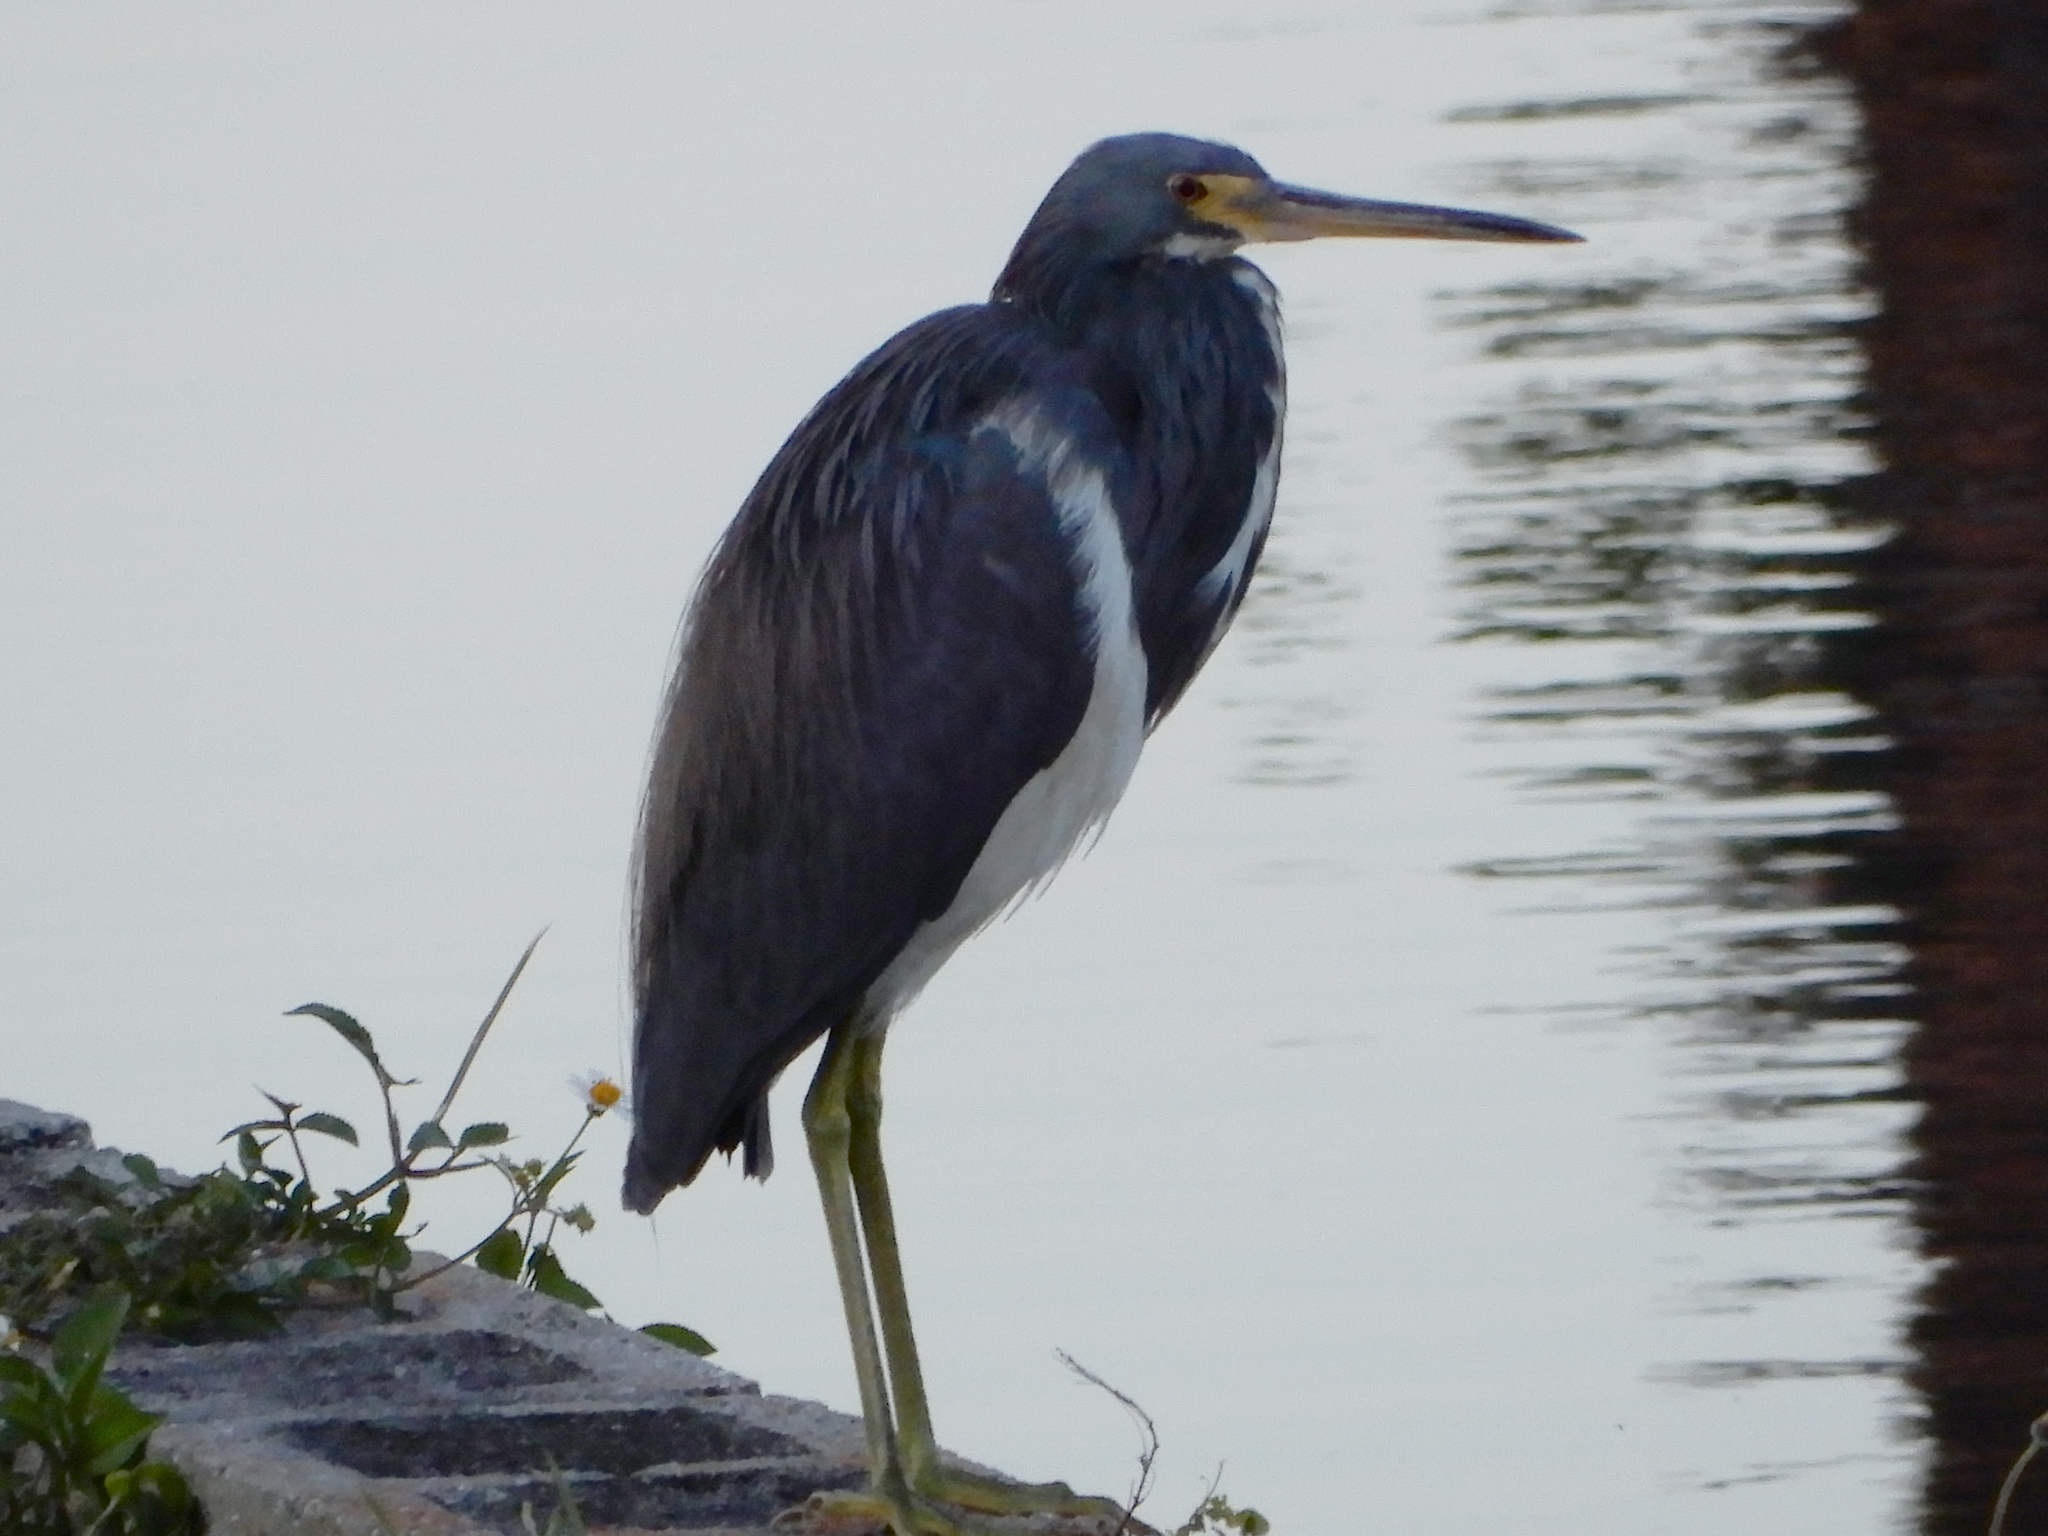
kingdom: Animalia
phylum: Chordata
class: Aves
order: Pelecaniformes
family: Ardeidae
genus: Egretta
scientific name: Egretta tricolor
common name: Tricolored heron
